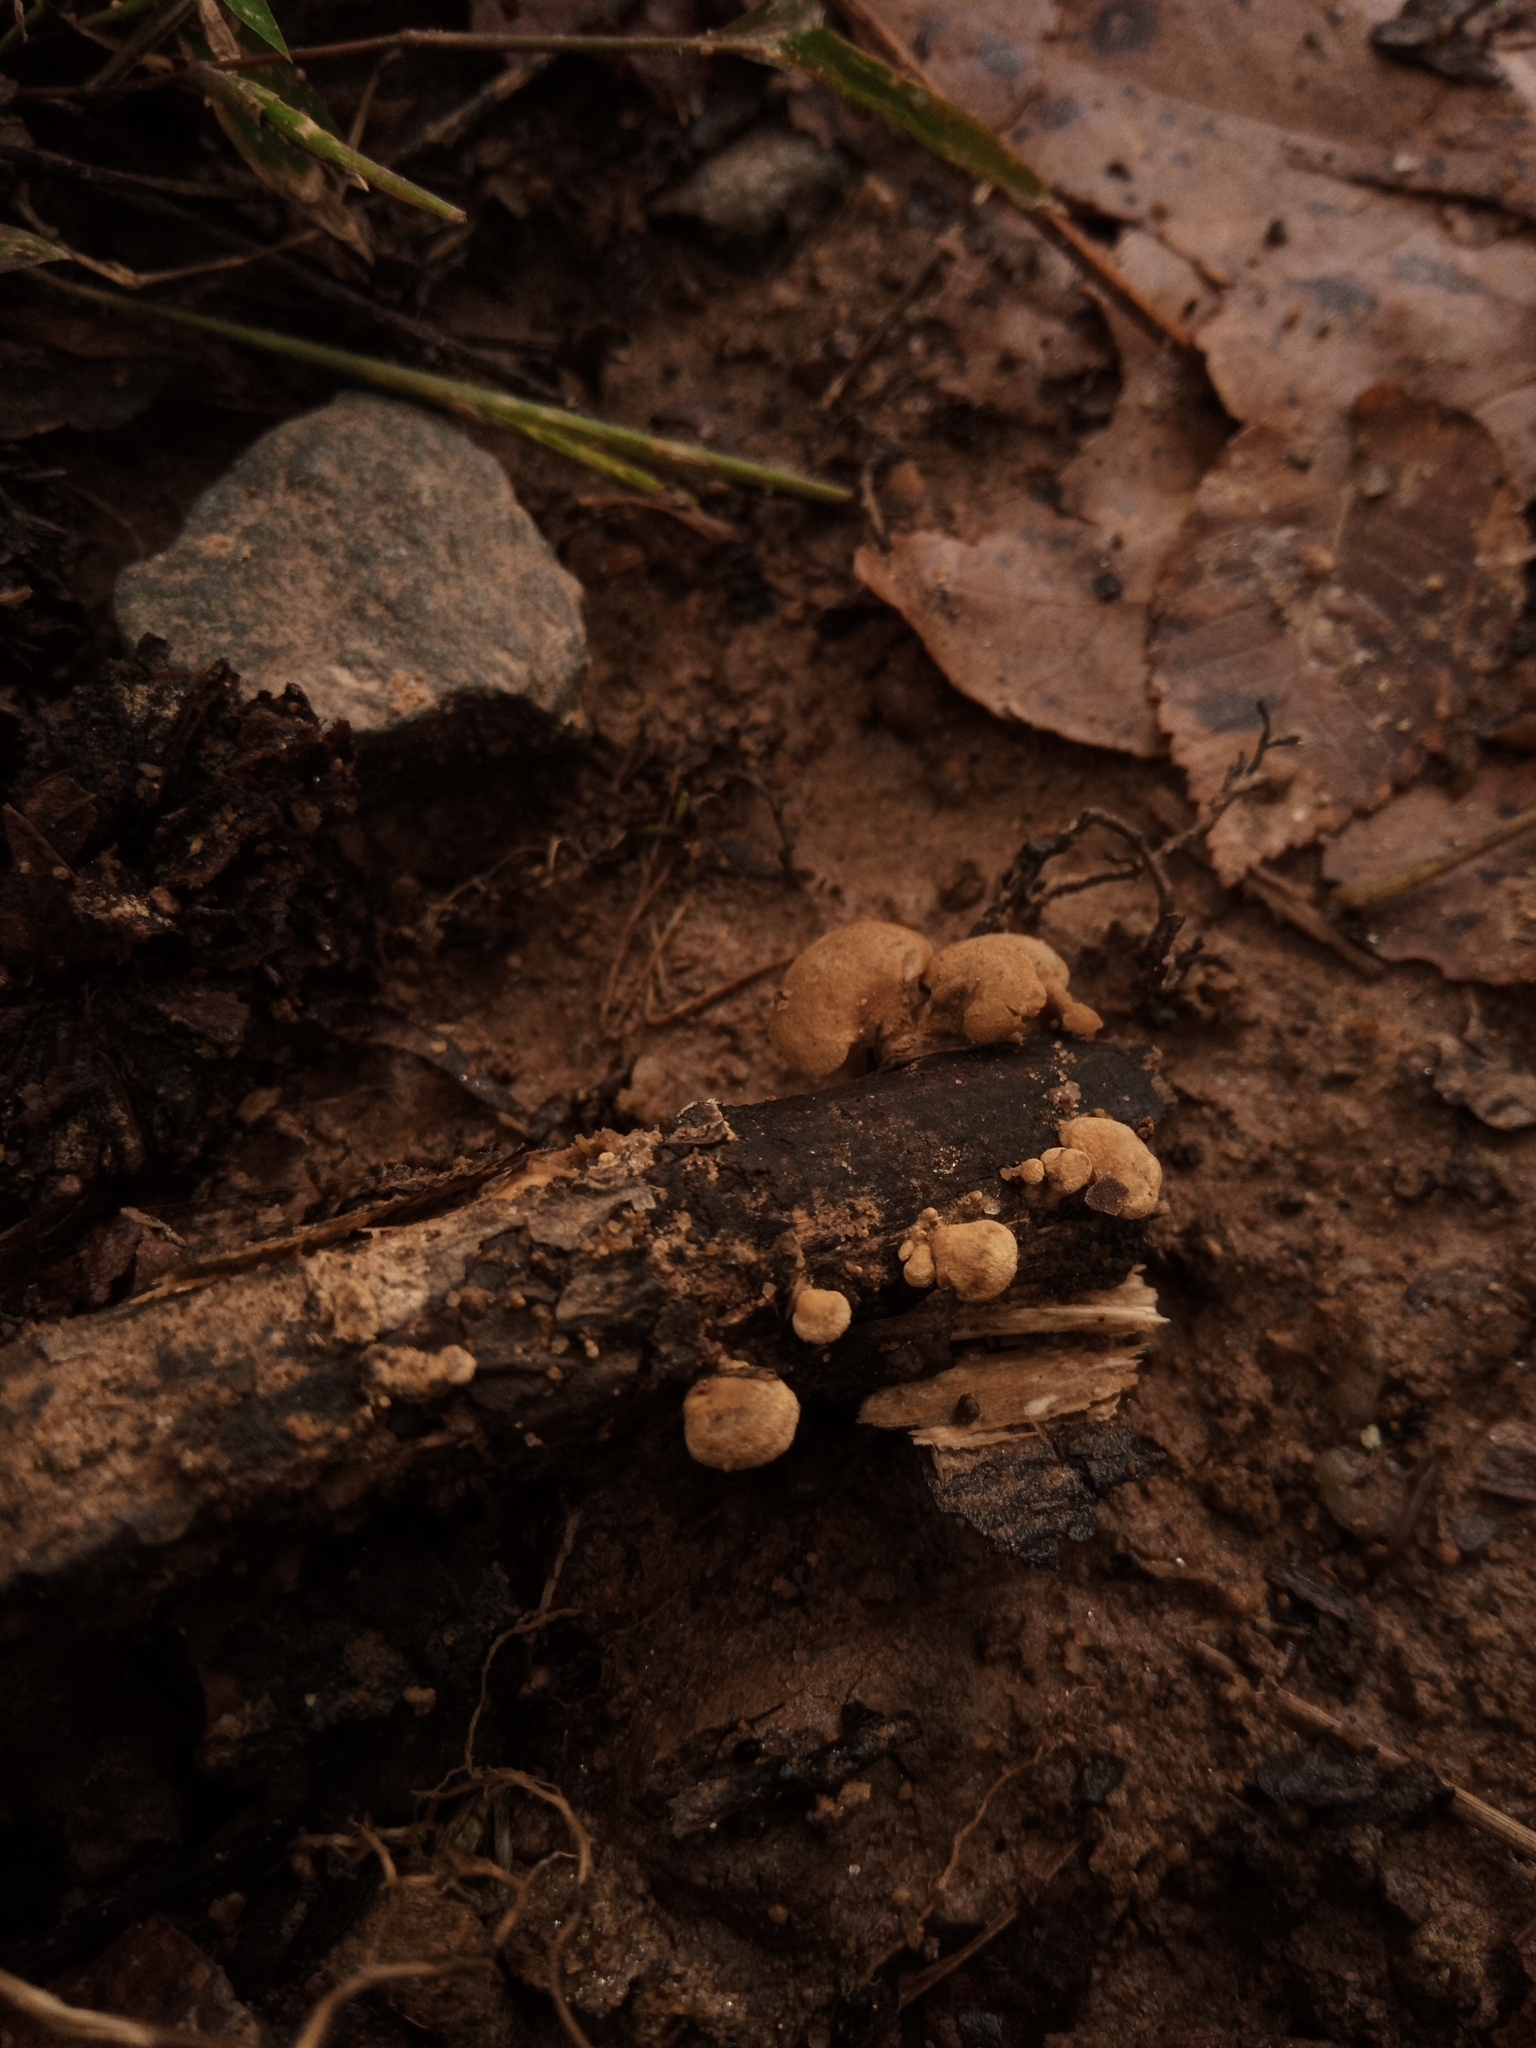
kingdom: Fungi
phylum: Basidiomycota
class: Agaricomycetes
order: Agaricales
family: Mycenaceae
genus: Panellus
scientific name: Panellus stipticus
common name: Bitter oysterling
